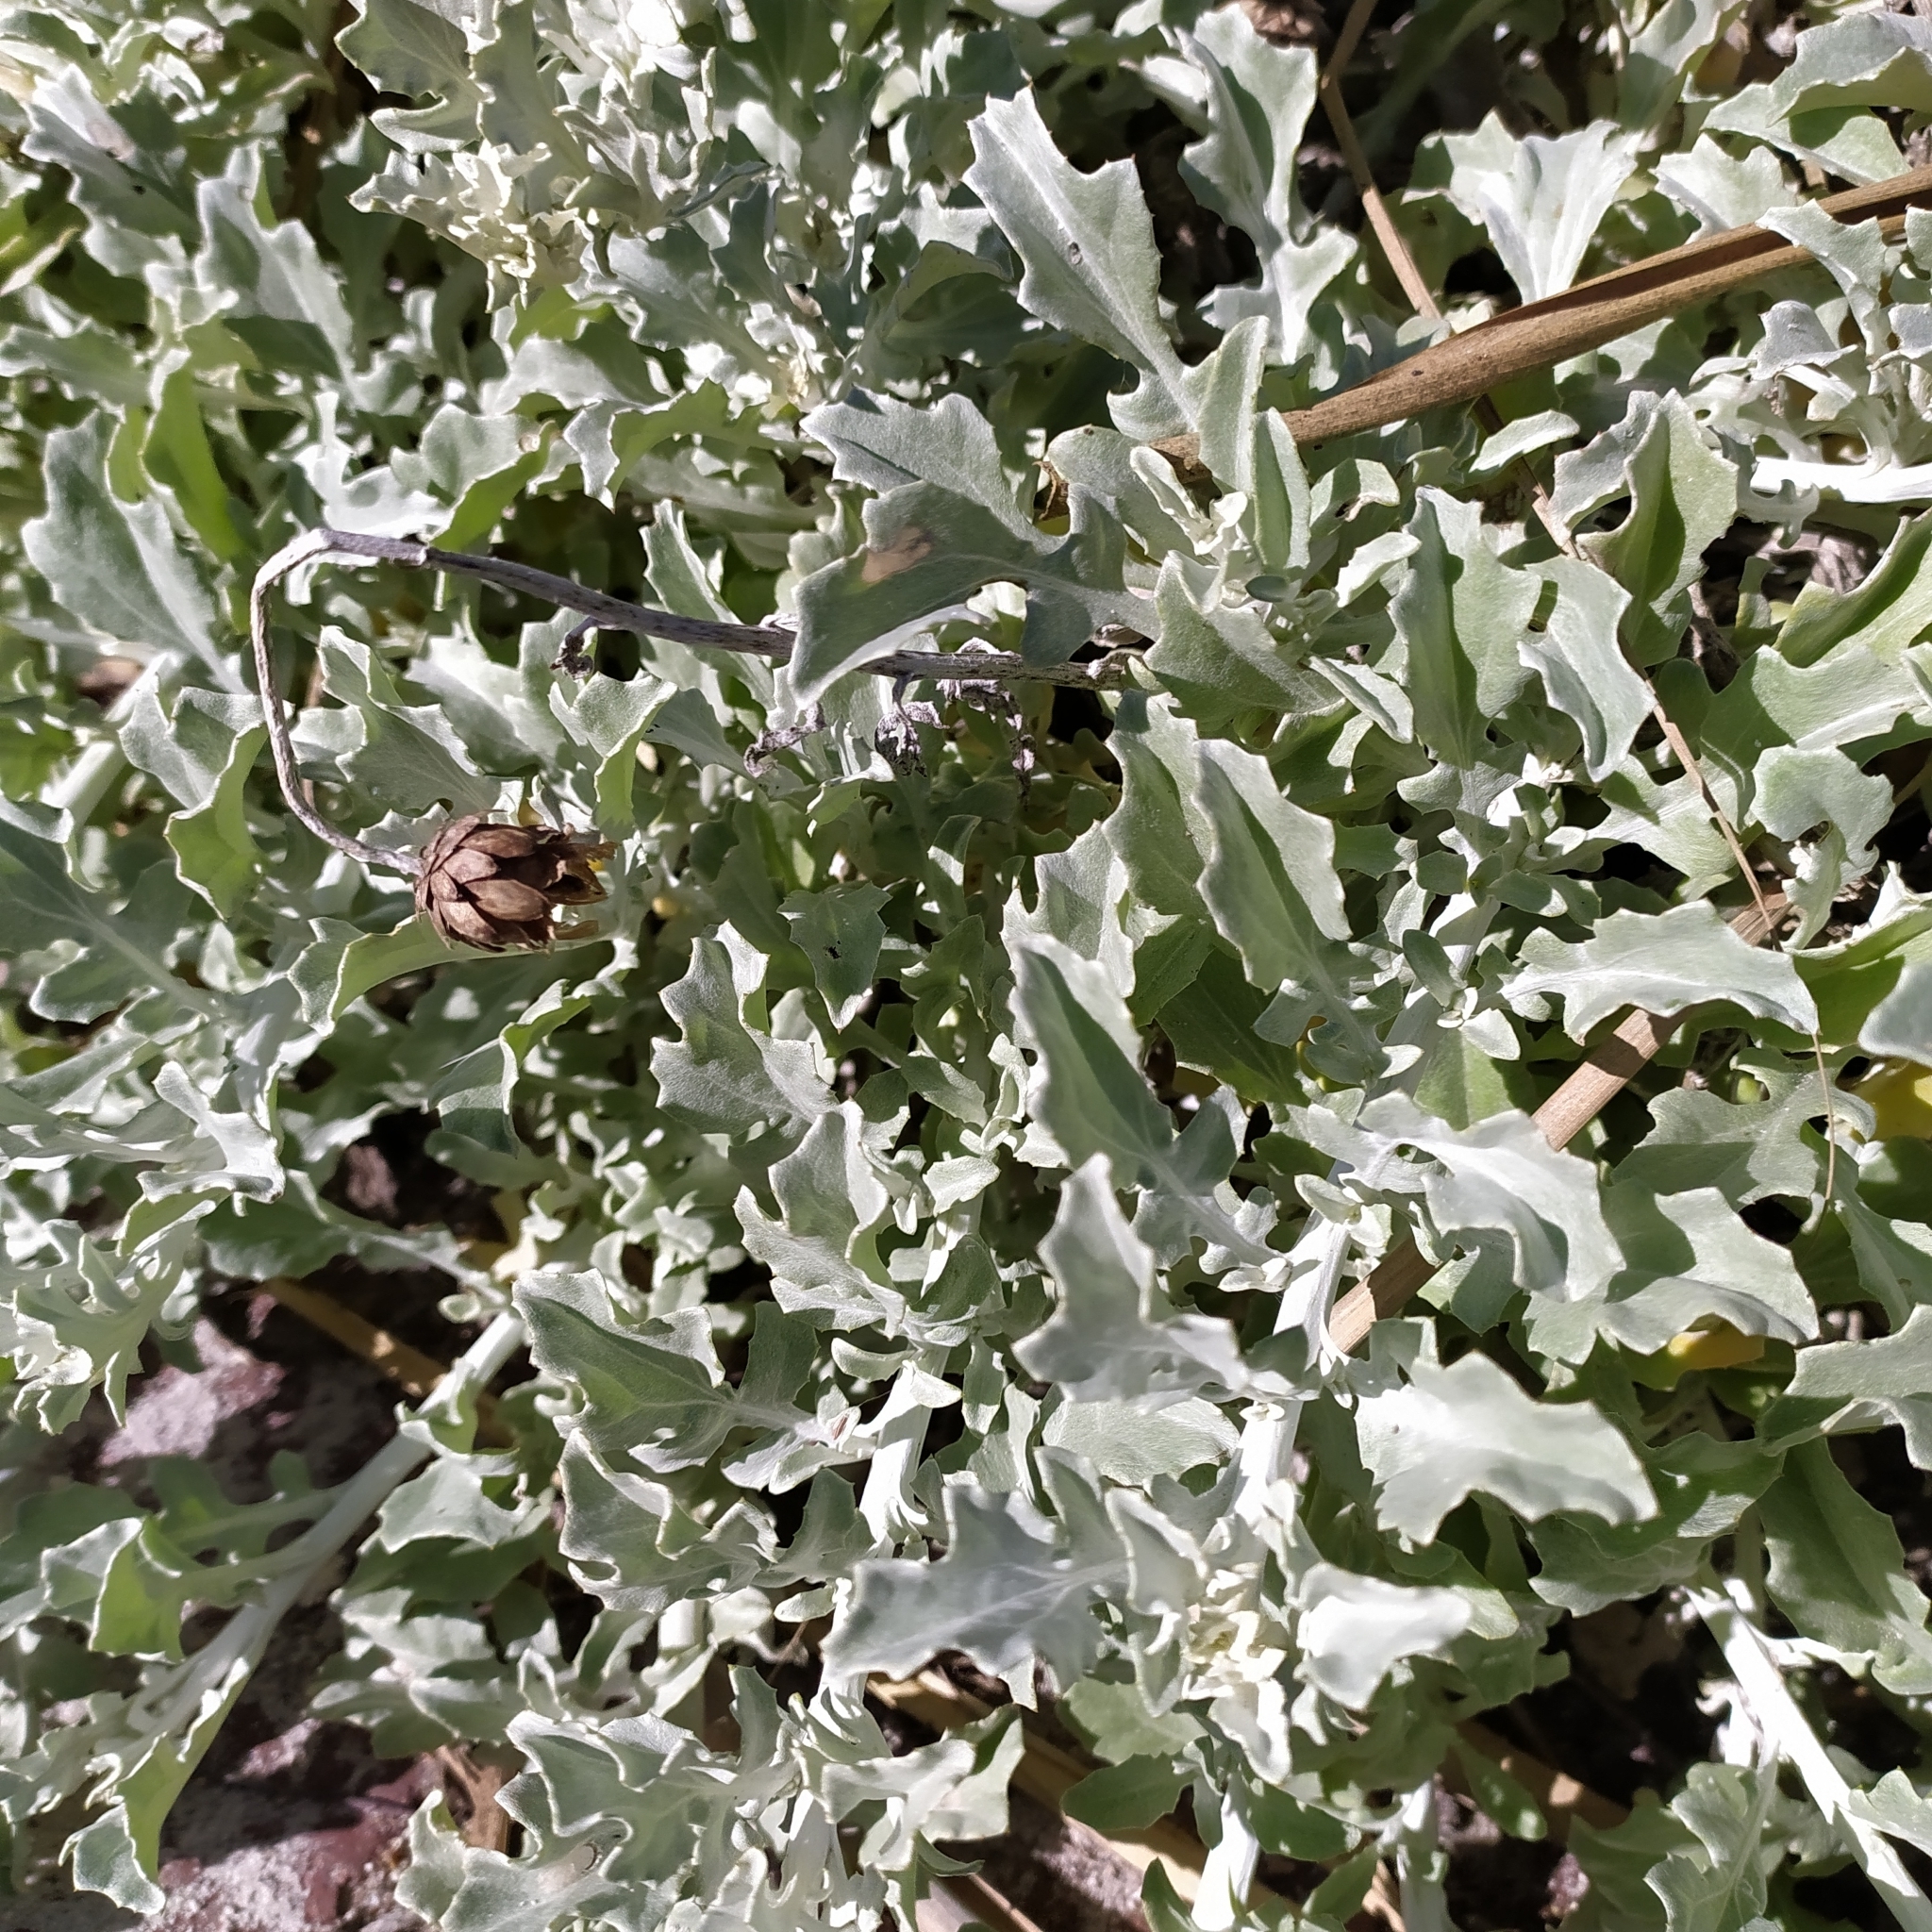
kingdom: Plantae
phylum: Tracheophyta
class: Magnoliopsida
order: Asterales
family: Asteraceae
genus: Arctotis
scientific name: Arctotis stoechadifolia
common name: African daisy
